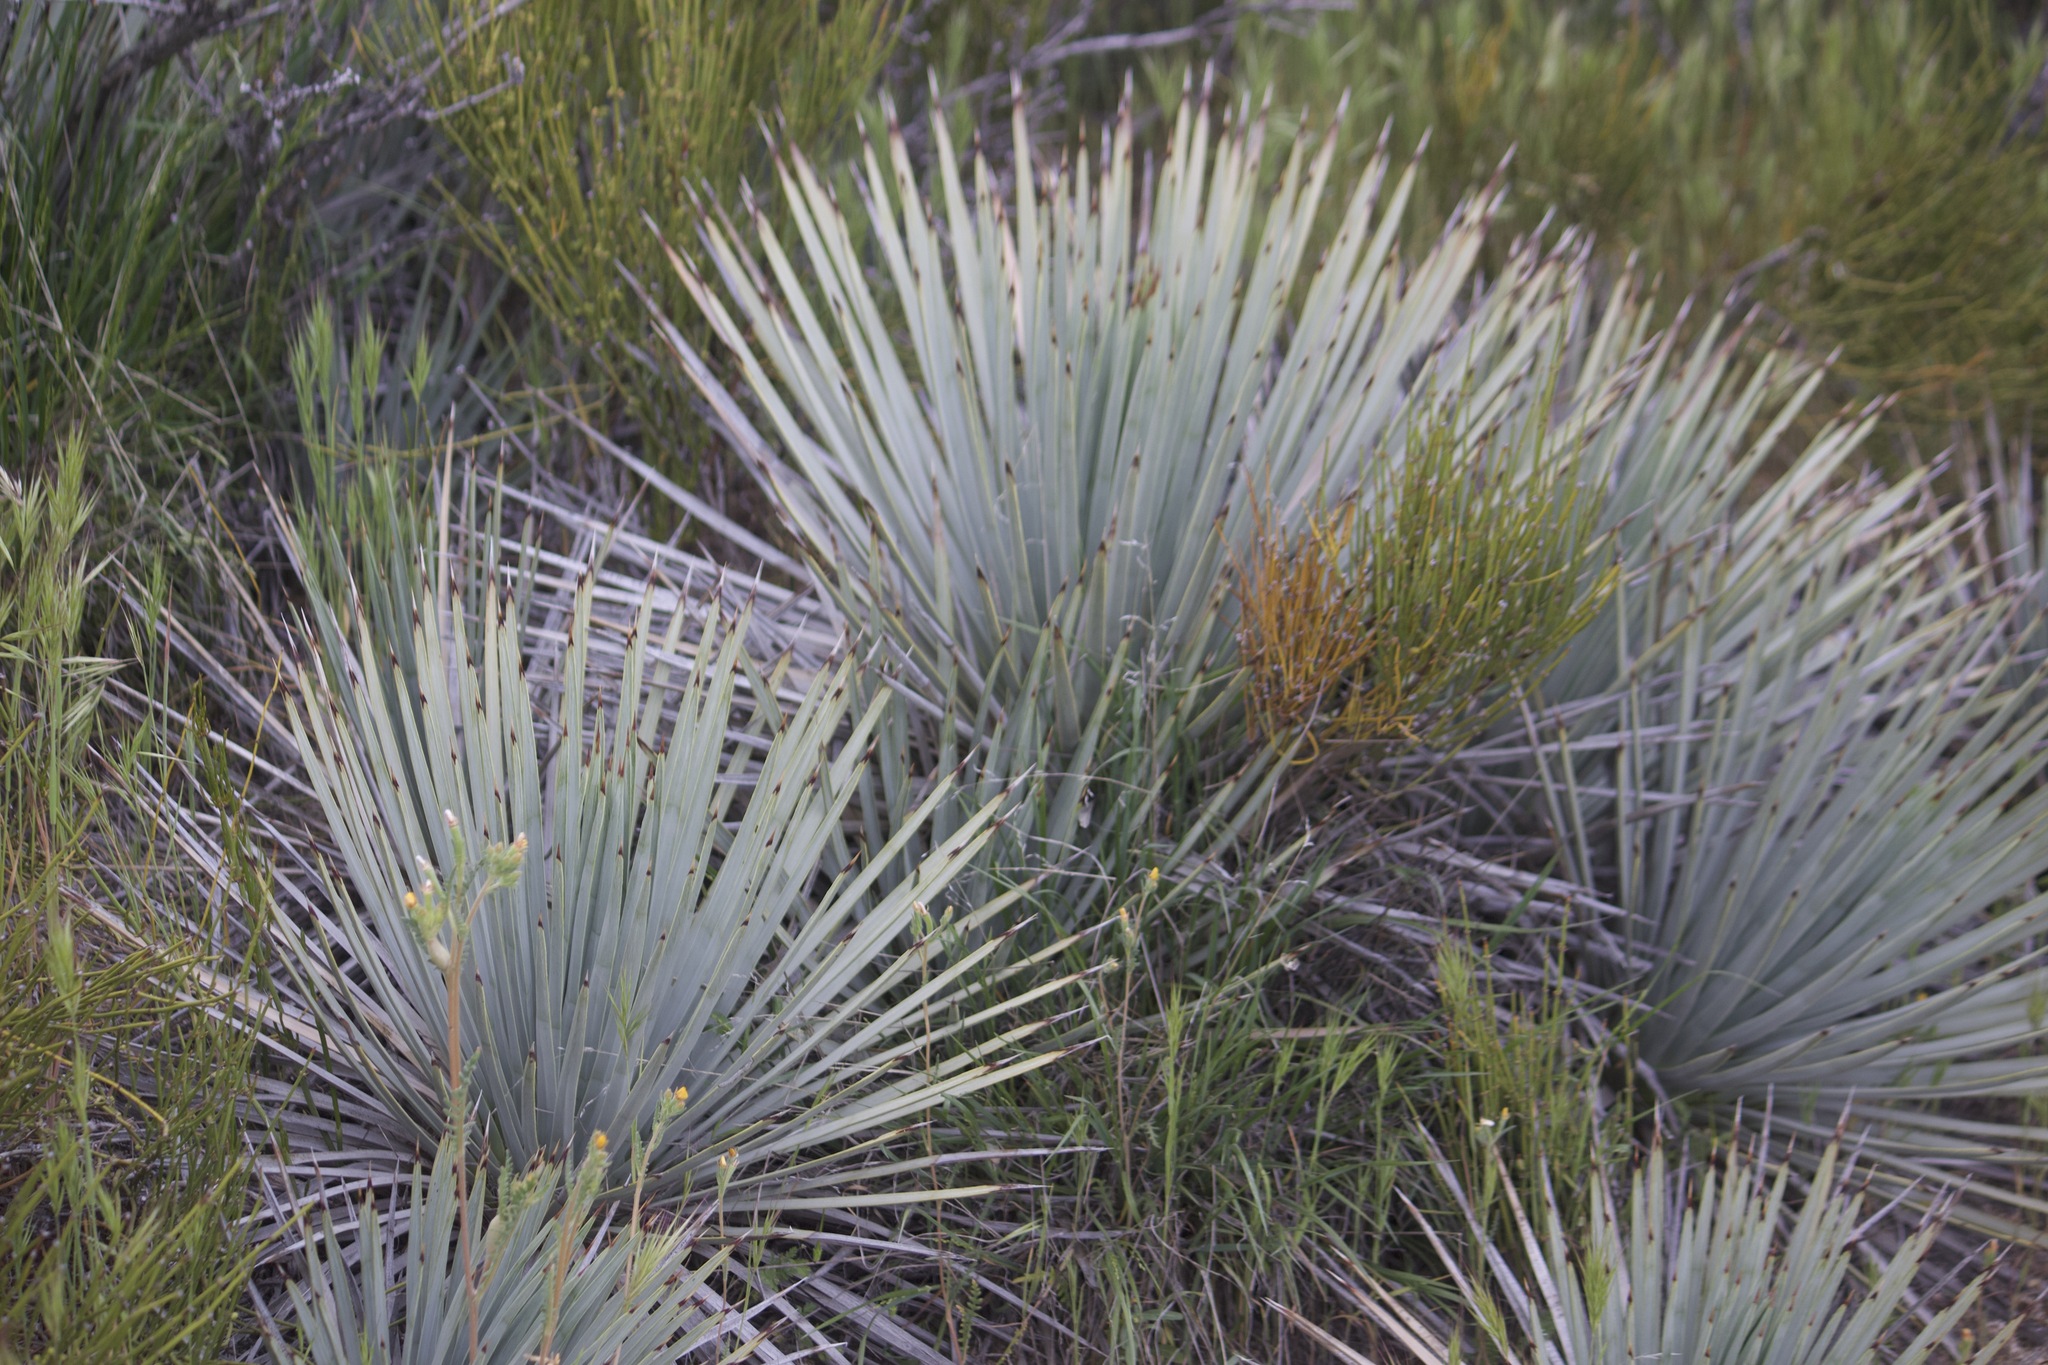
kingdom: Plantae
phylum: Tracheophyta
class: Liliopsida
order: Asparagales
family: Asparagaceae
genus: Hesperoyucca
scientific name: Hesperoyucca whipplei
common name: Our lord's-candle
